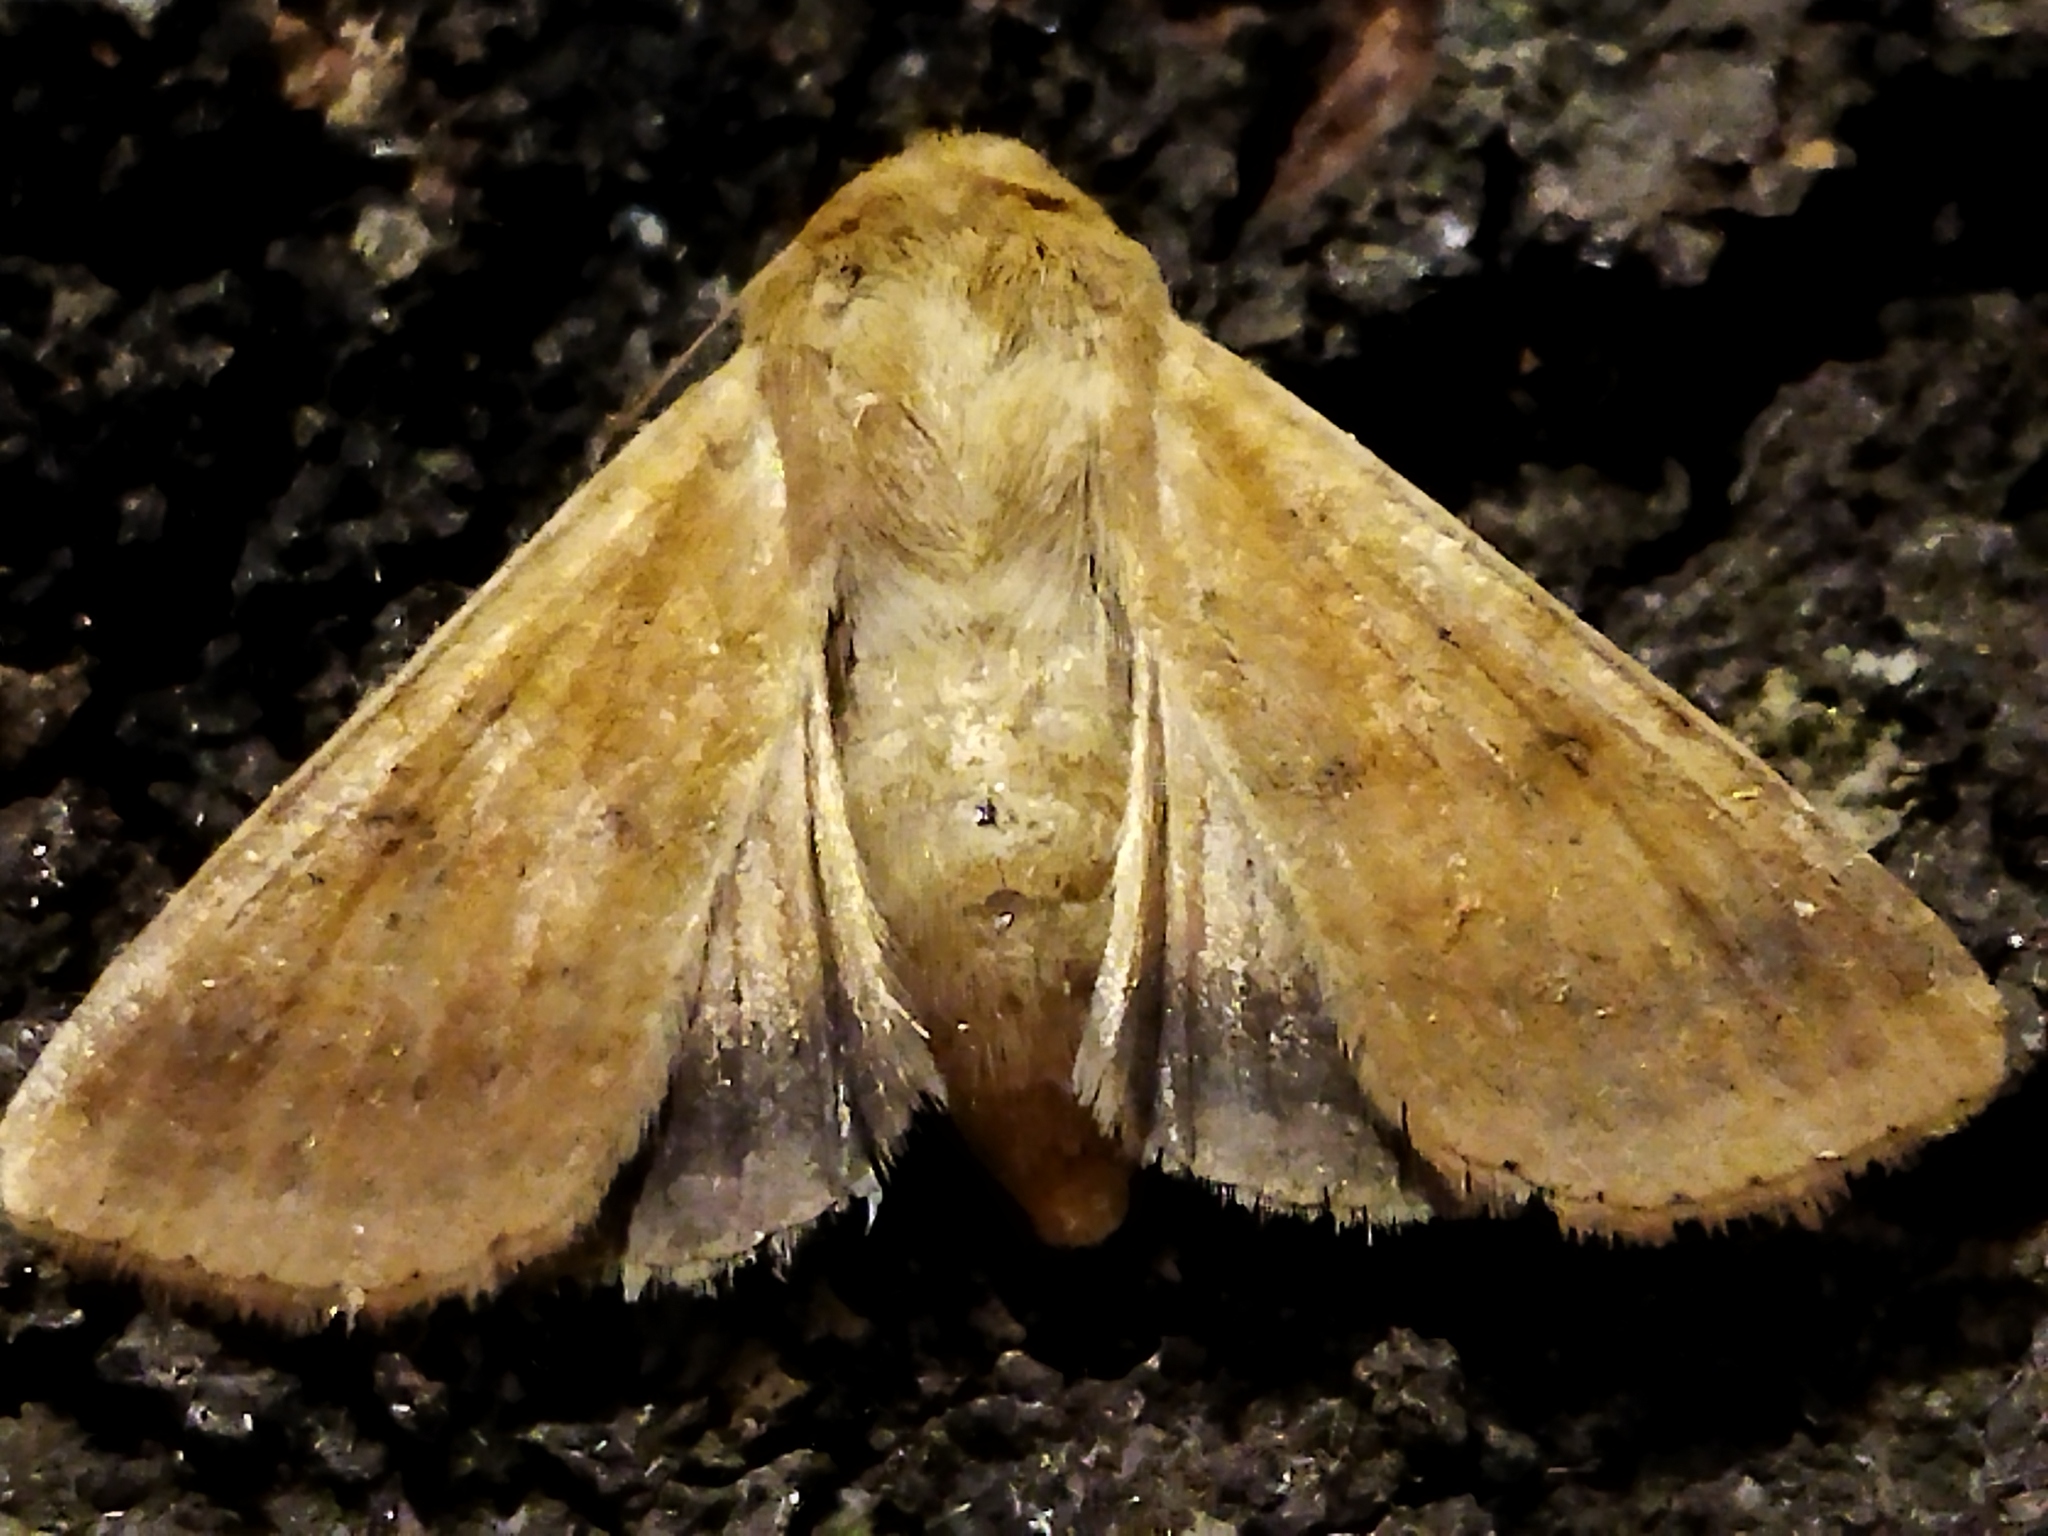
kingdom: Animalia
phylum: Arthropoda
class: Insecta
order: Lepidoptera
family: Noctuidae
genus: Helicoverpa
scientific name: Helicoverpa armigera
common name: Cotton bollworm
